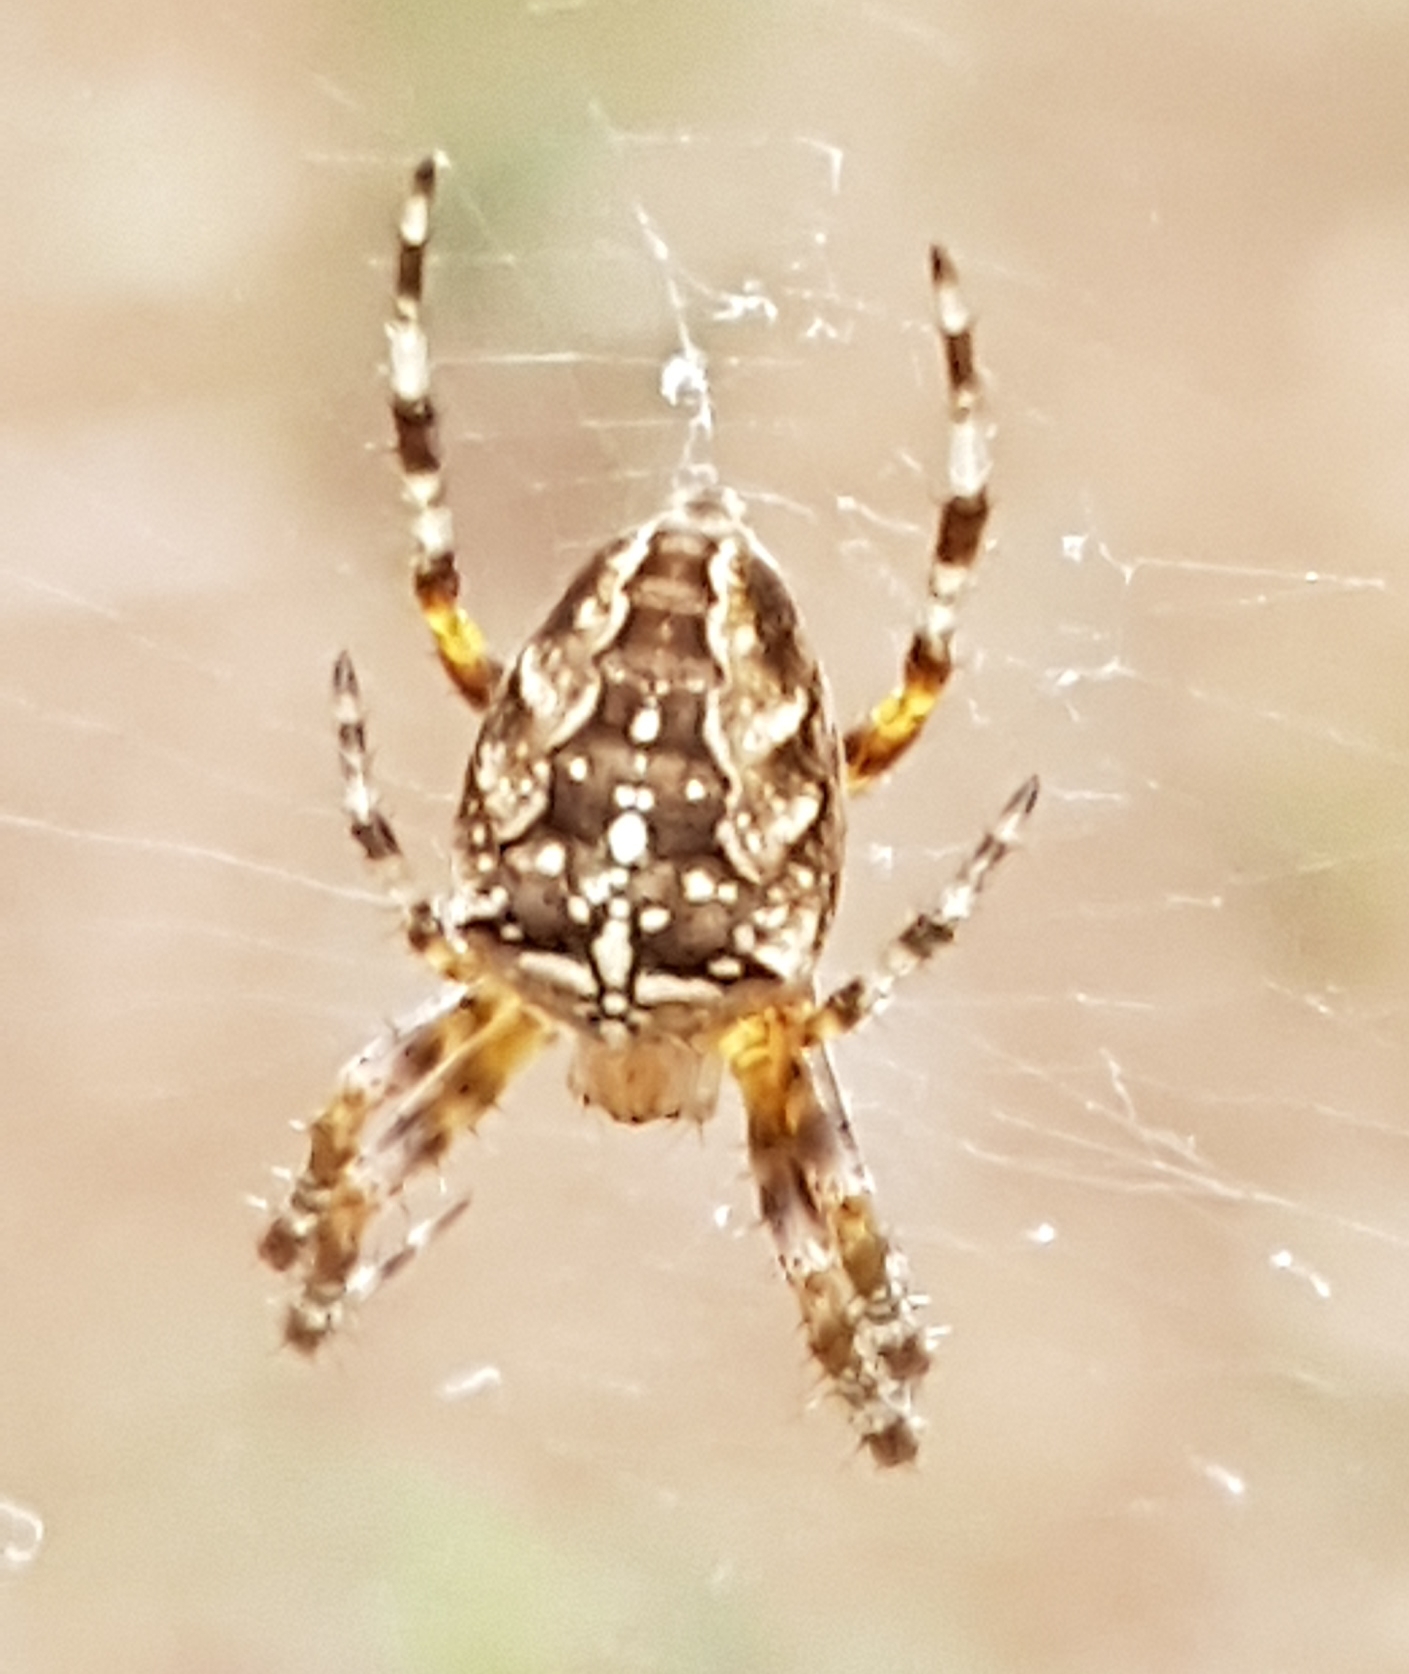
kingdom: Animalia
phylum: Arthropoda
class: Arachnida
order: Araneae
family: Araneidae
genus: Araneus
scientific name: Araneus diadematus
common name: Cross orbweaver
